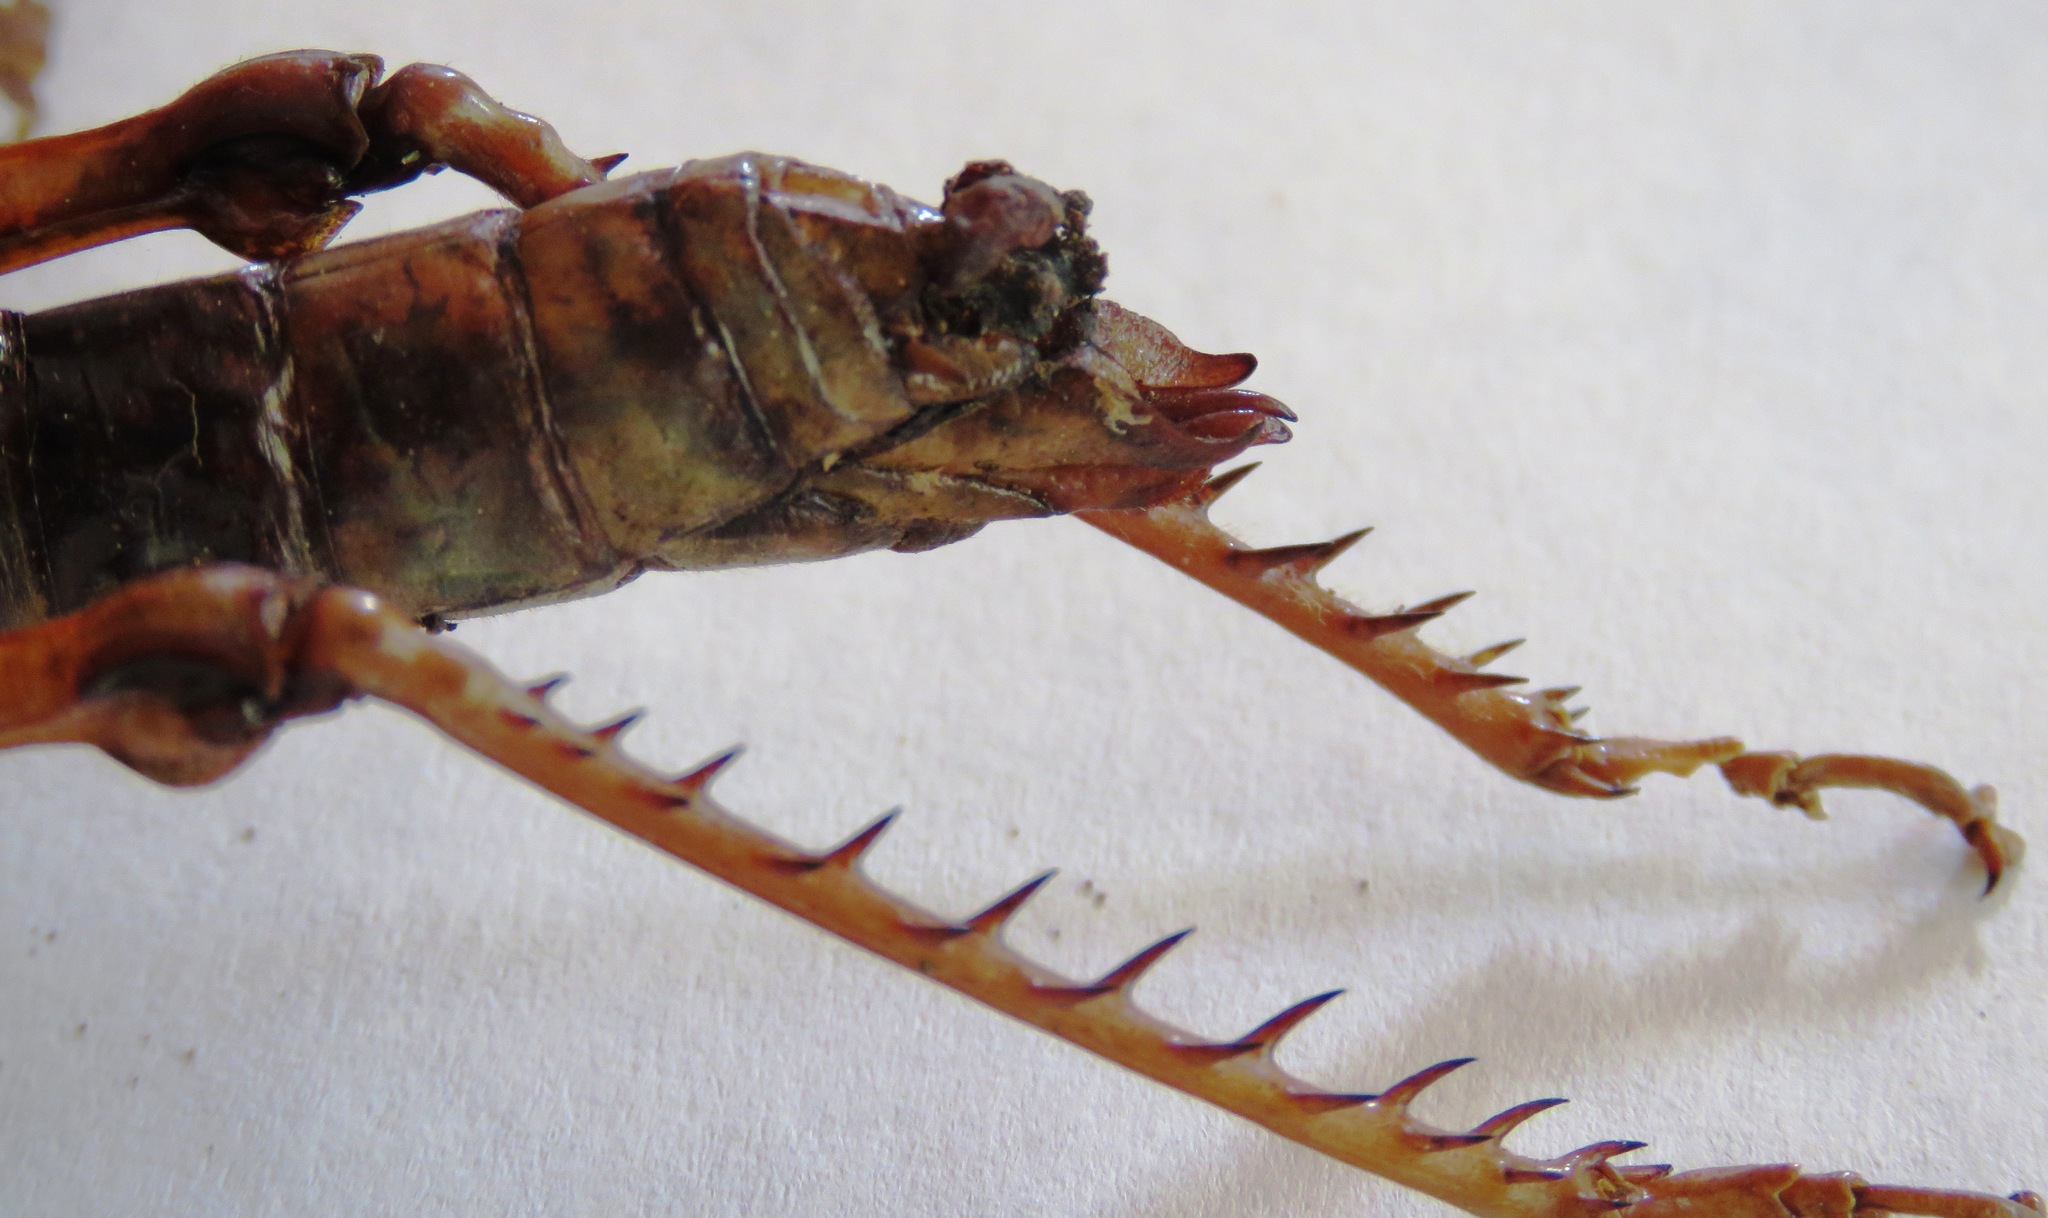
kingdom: Animalia
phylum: Arthropoda
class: Insecta
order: Orthoptera
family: Romaleidae
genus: Tropidacris
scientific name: Tropidacris cristata
